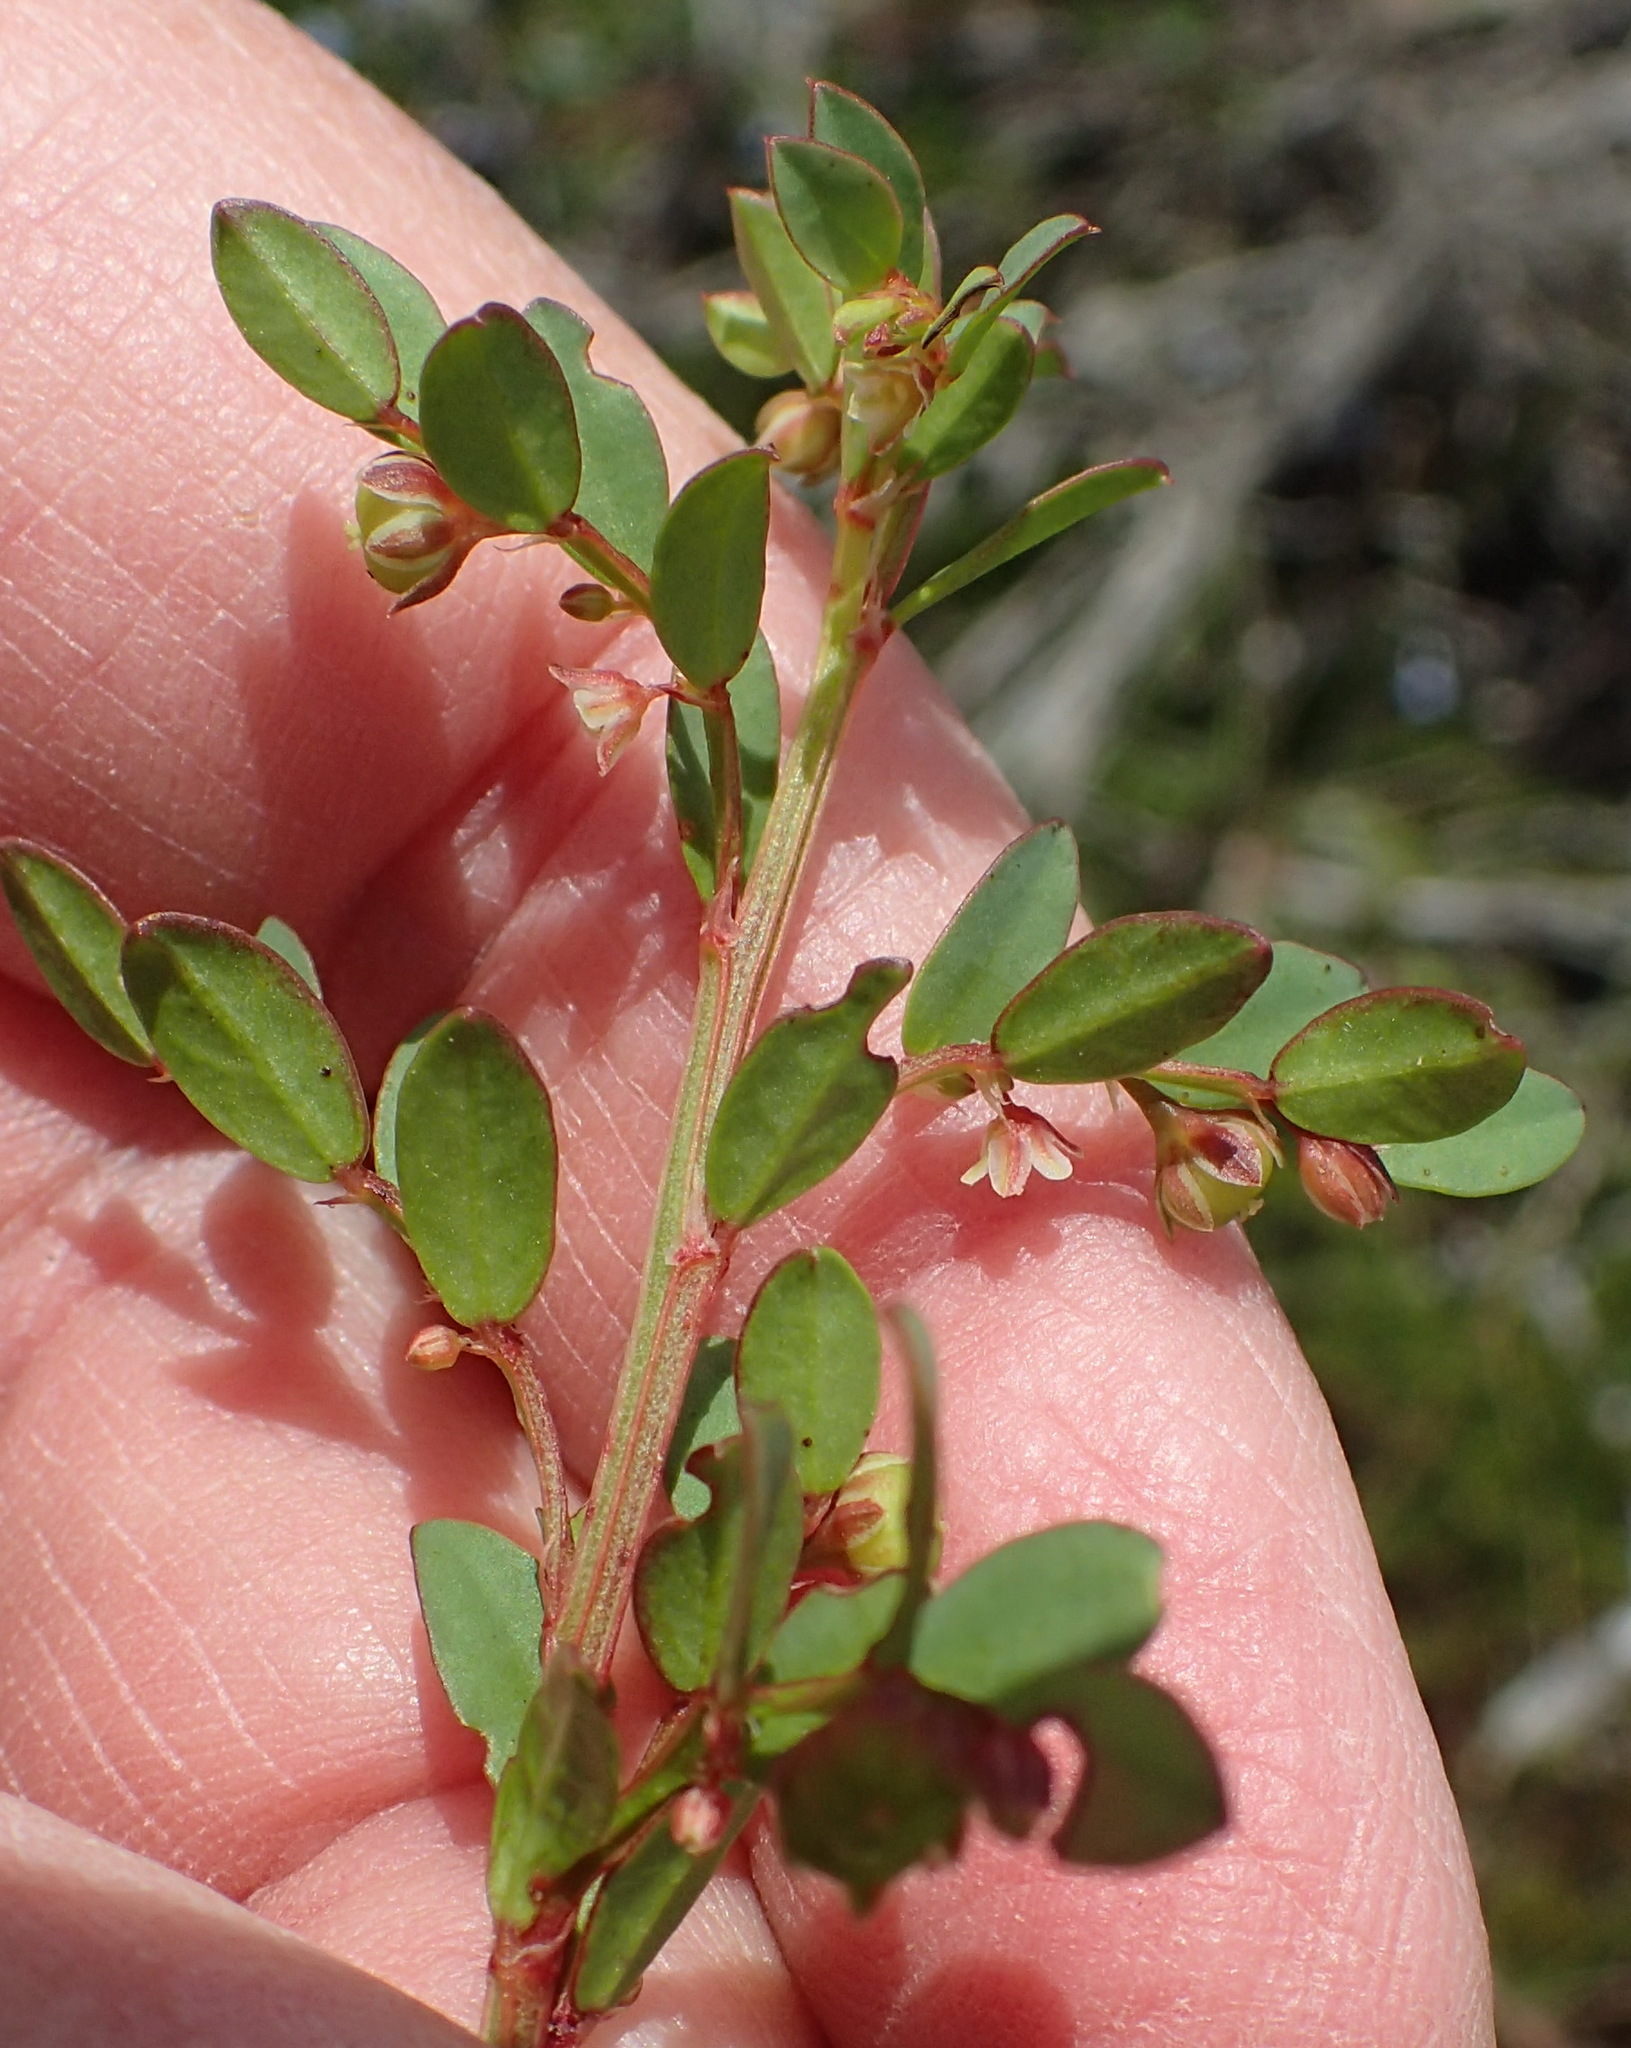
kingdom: Plantae
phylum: Tracheophyta
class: Magnoliopsida
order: Malpighiales
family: Phyllanthaceae
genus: Phyllanthus
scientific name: Phyllanthus
